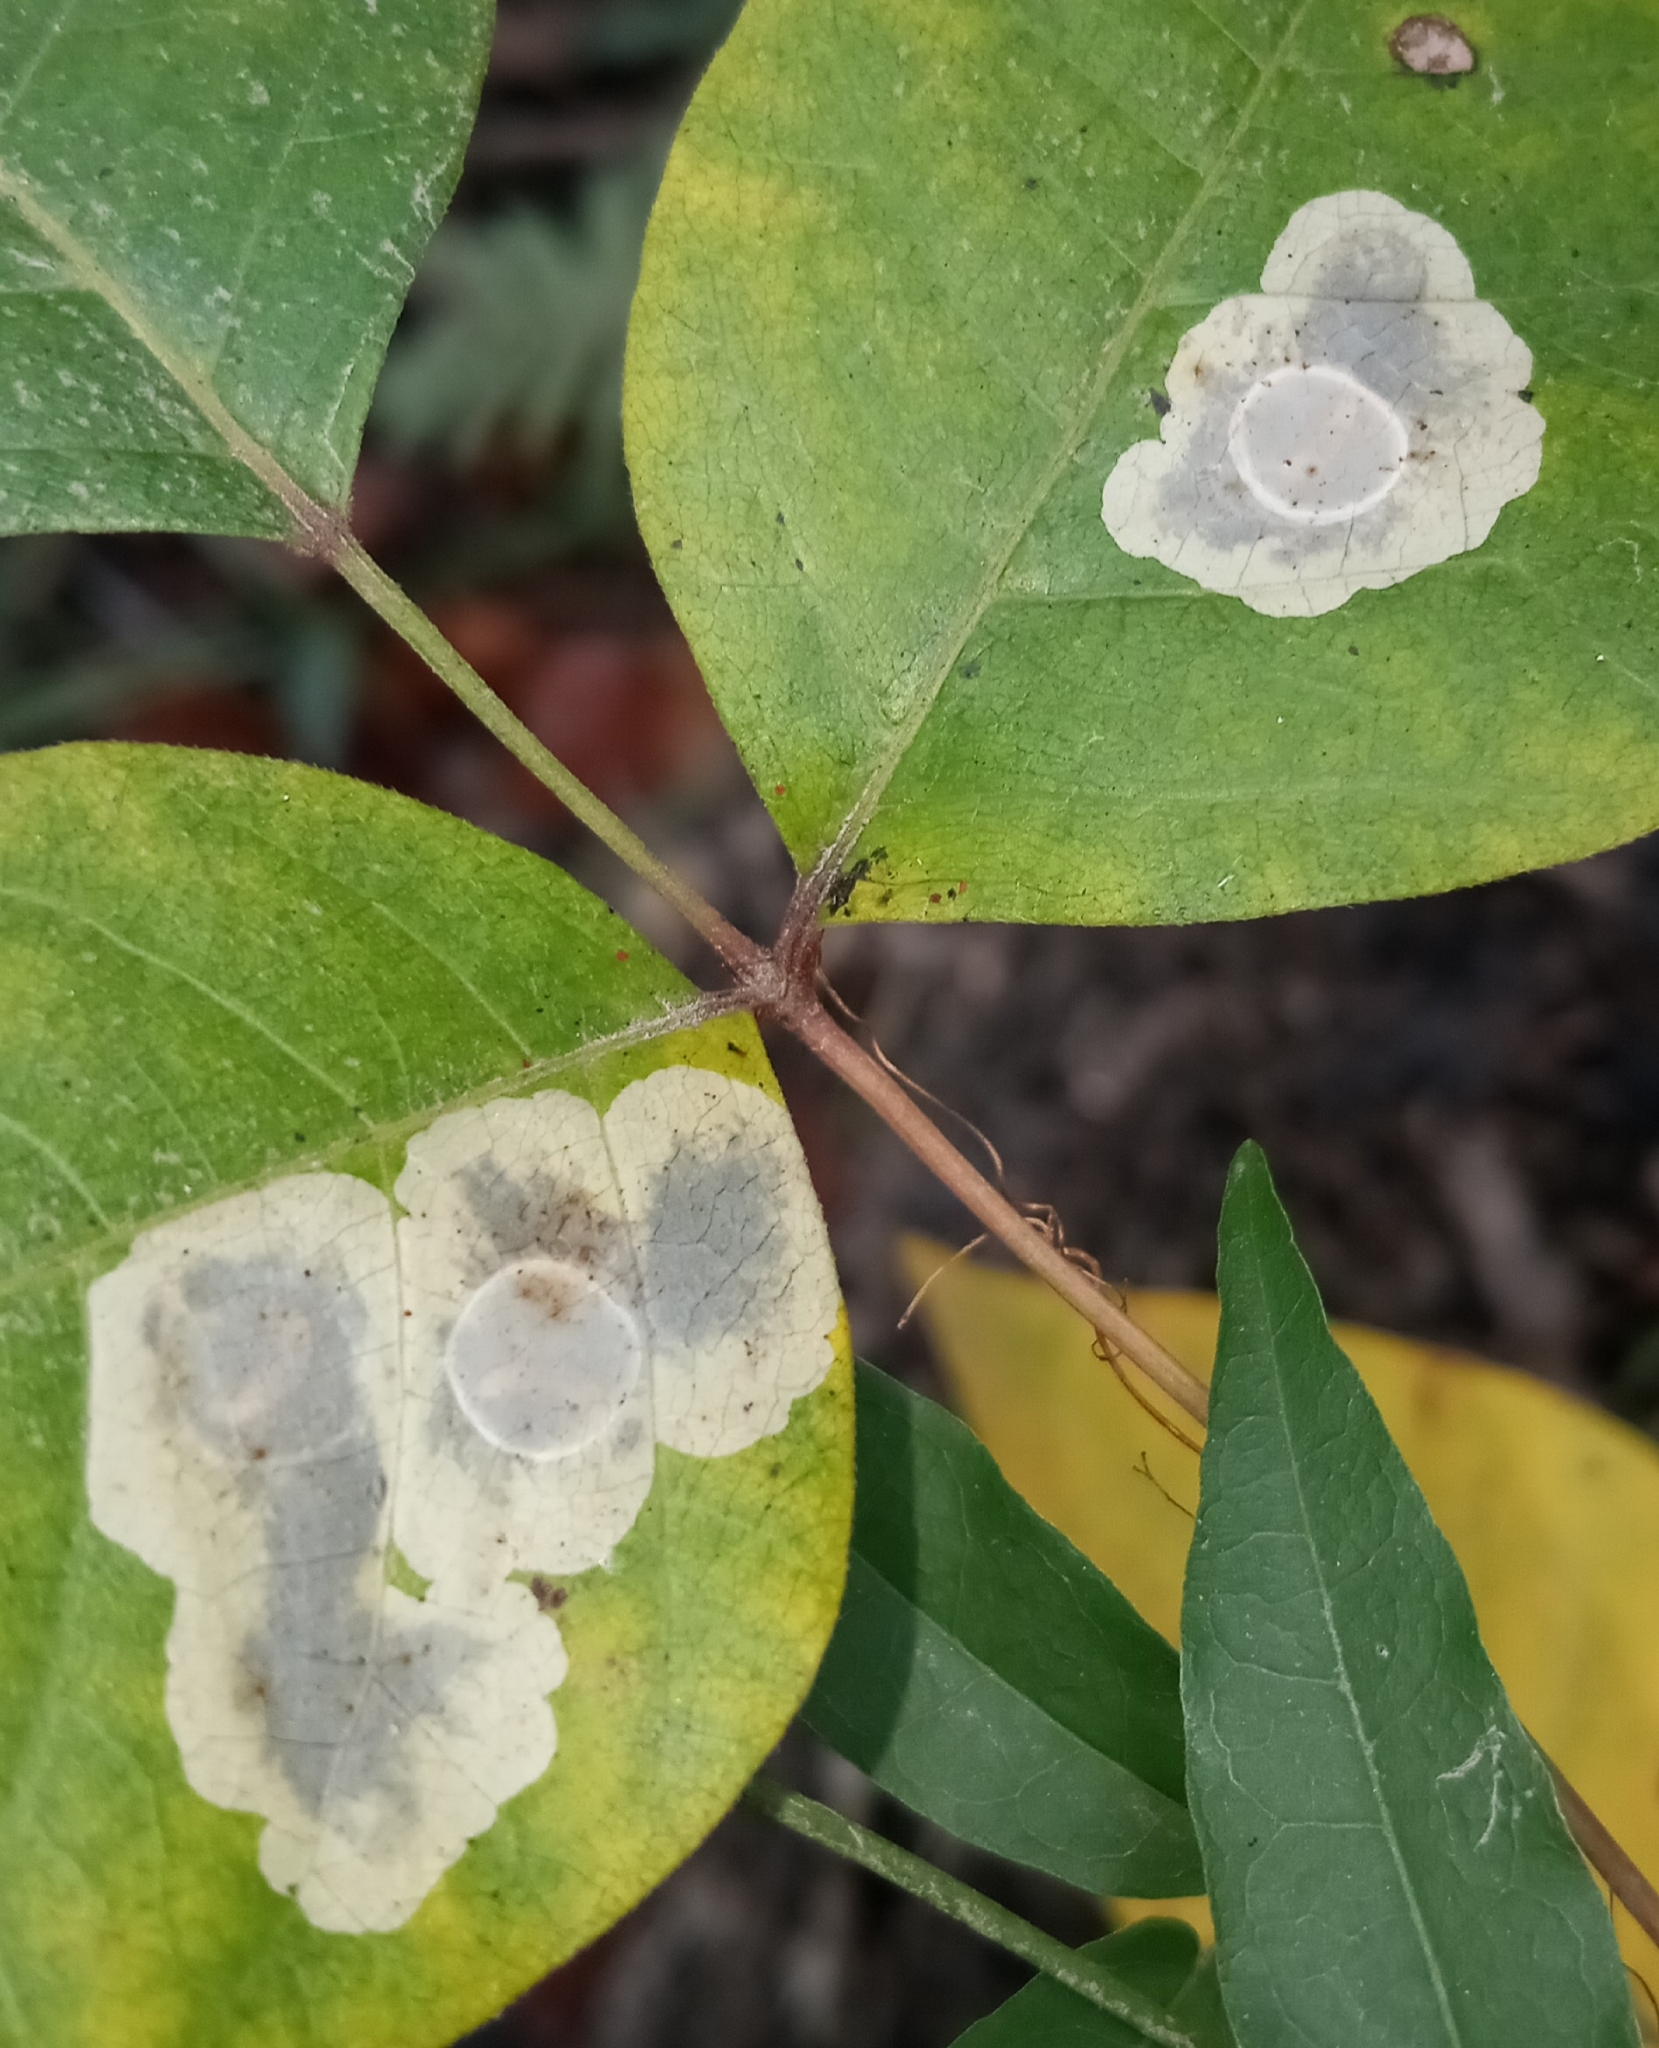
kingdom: Animalia
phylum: Arthropoda
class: Insecta
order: Lepidoptera
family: Gracillariidae
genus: Cameraria
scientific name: Cameraria guttifinitella
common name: Poison ivy leaf-miner moth
